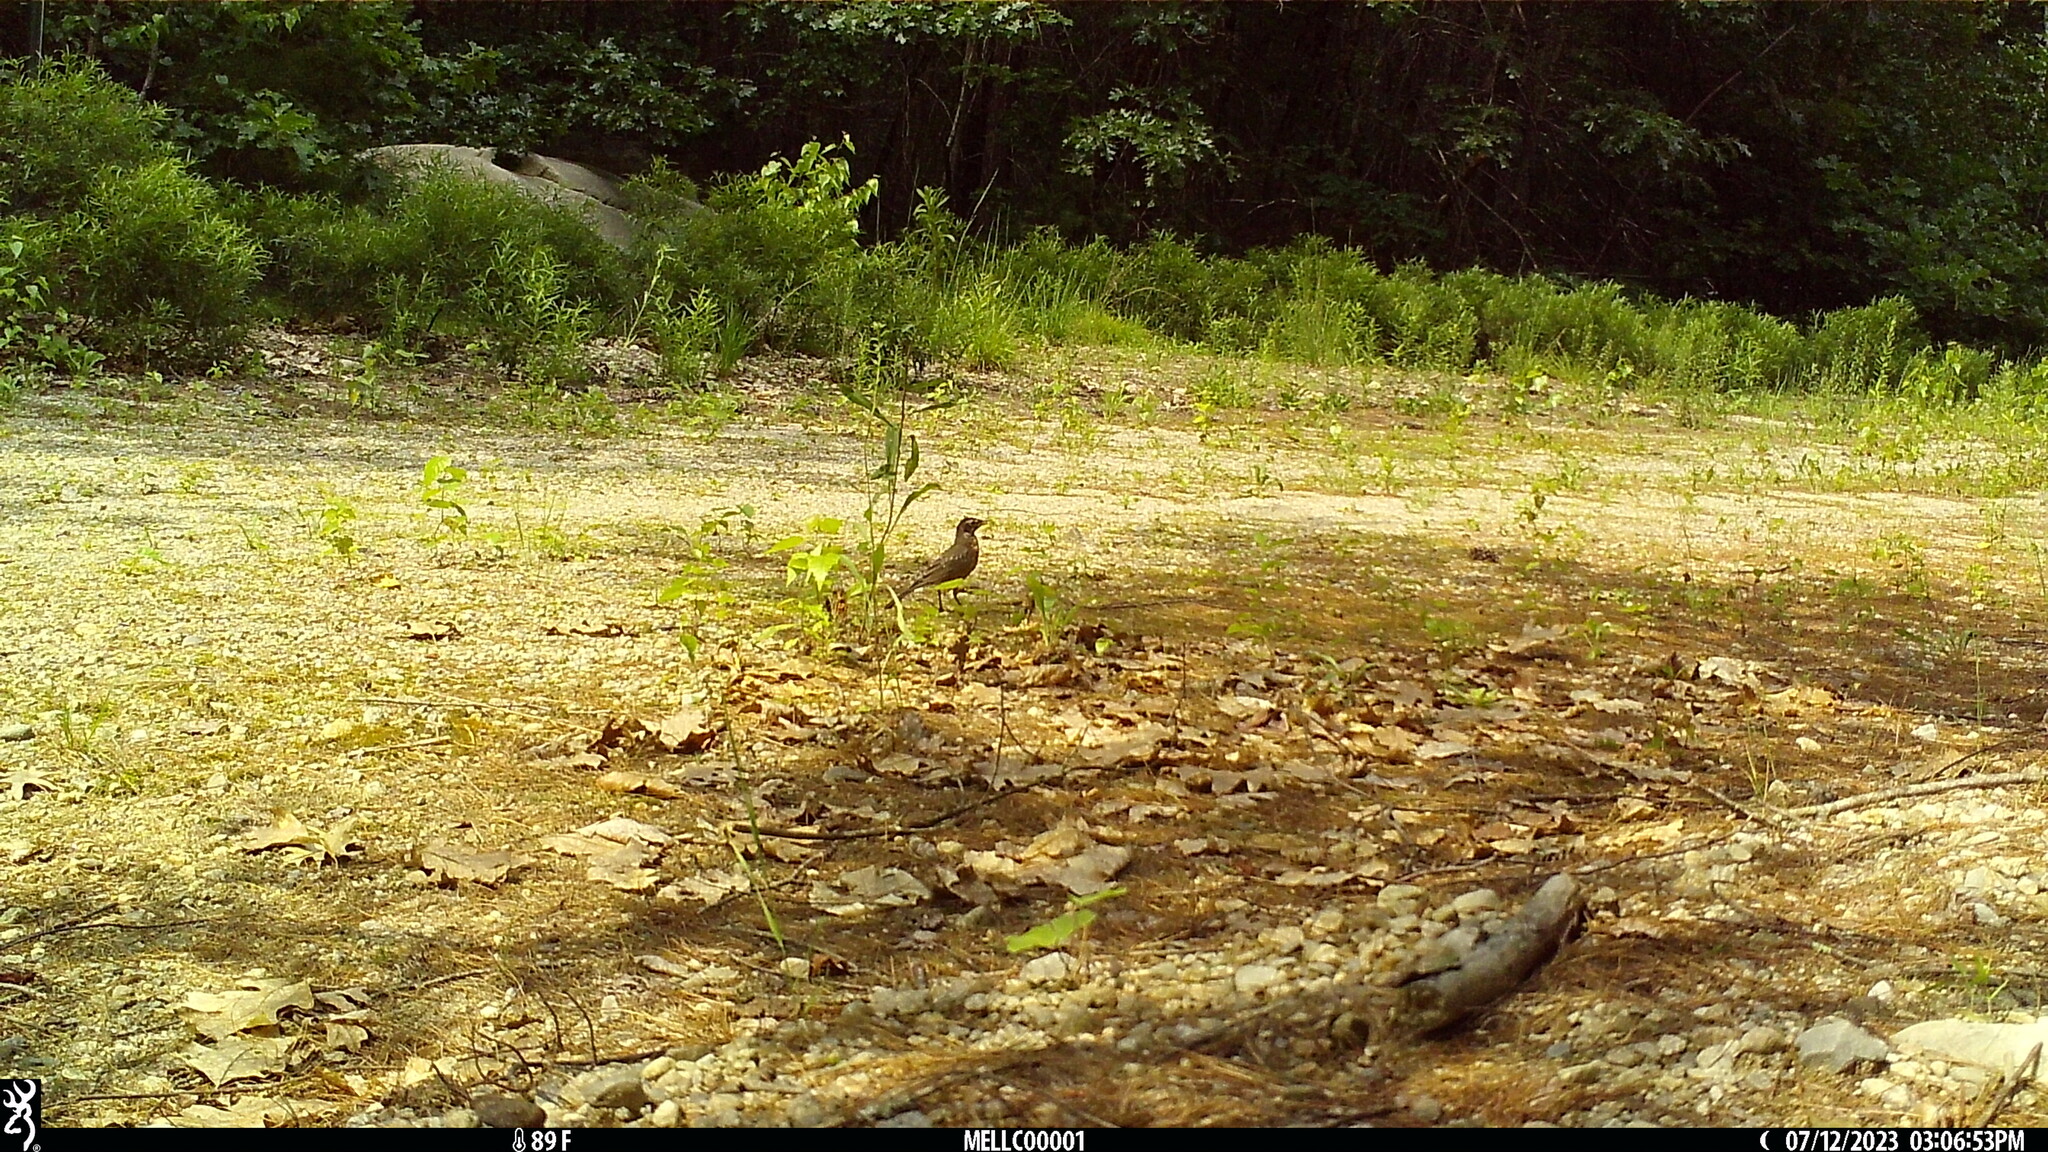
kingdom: Animalia
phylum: Chordata
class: Aves
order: Passeriformes
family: Turdidae
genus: Turdus
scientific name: Turdus migratorius
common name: American robin
